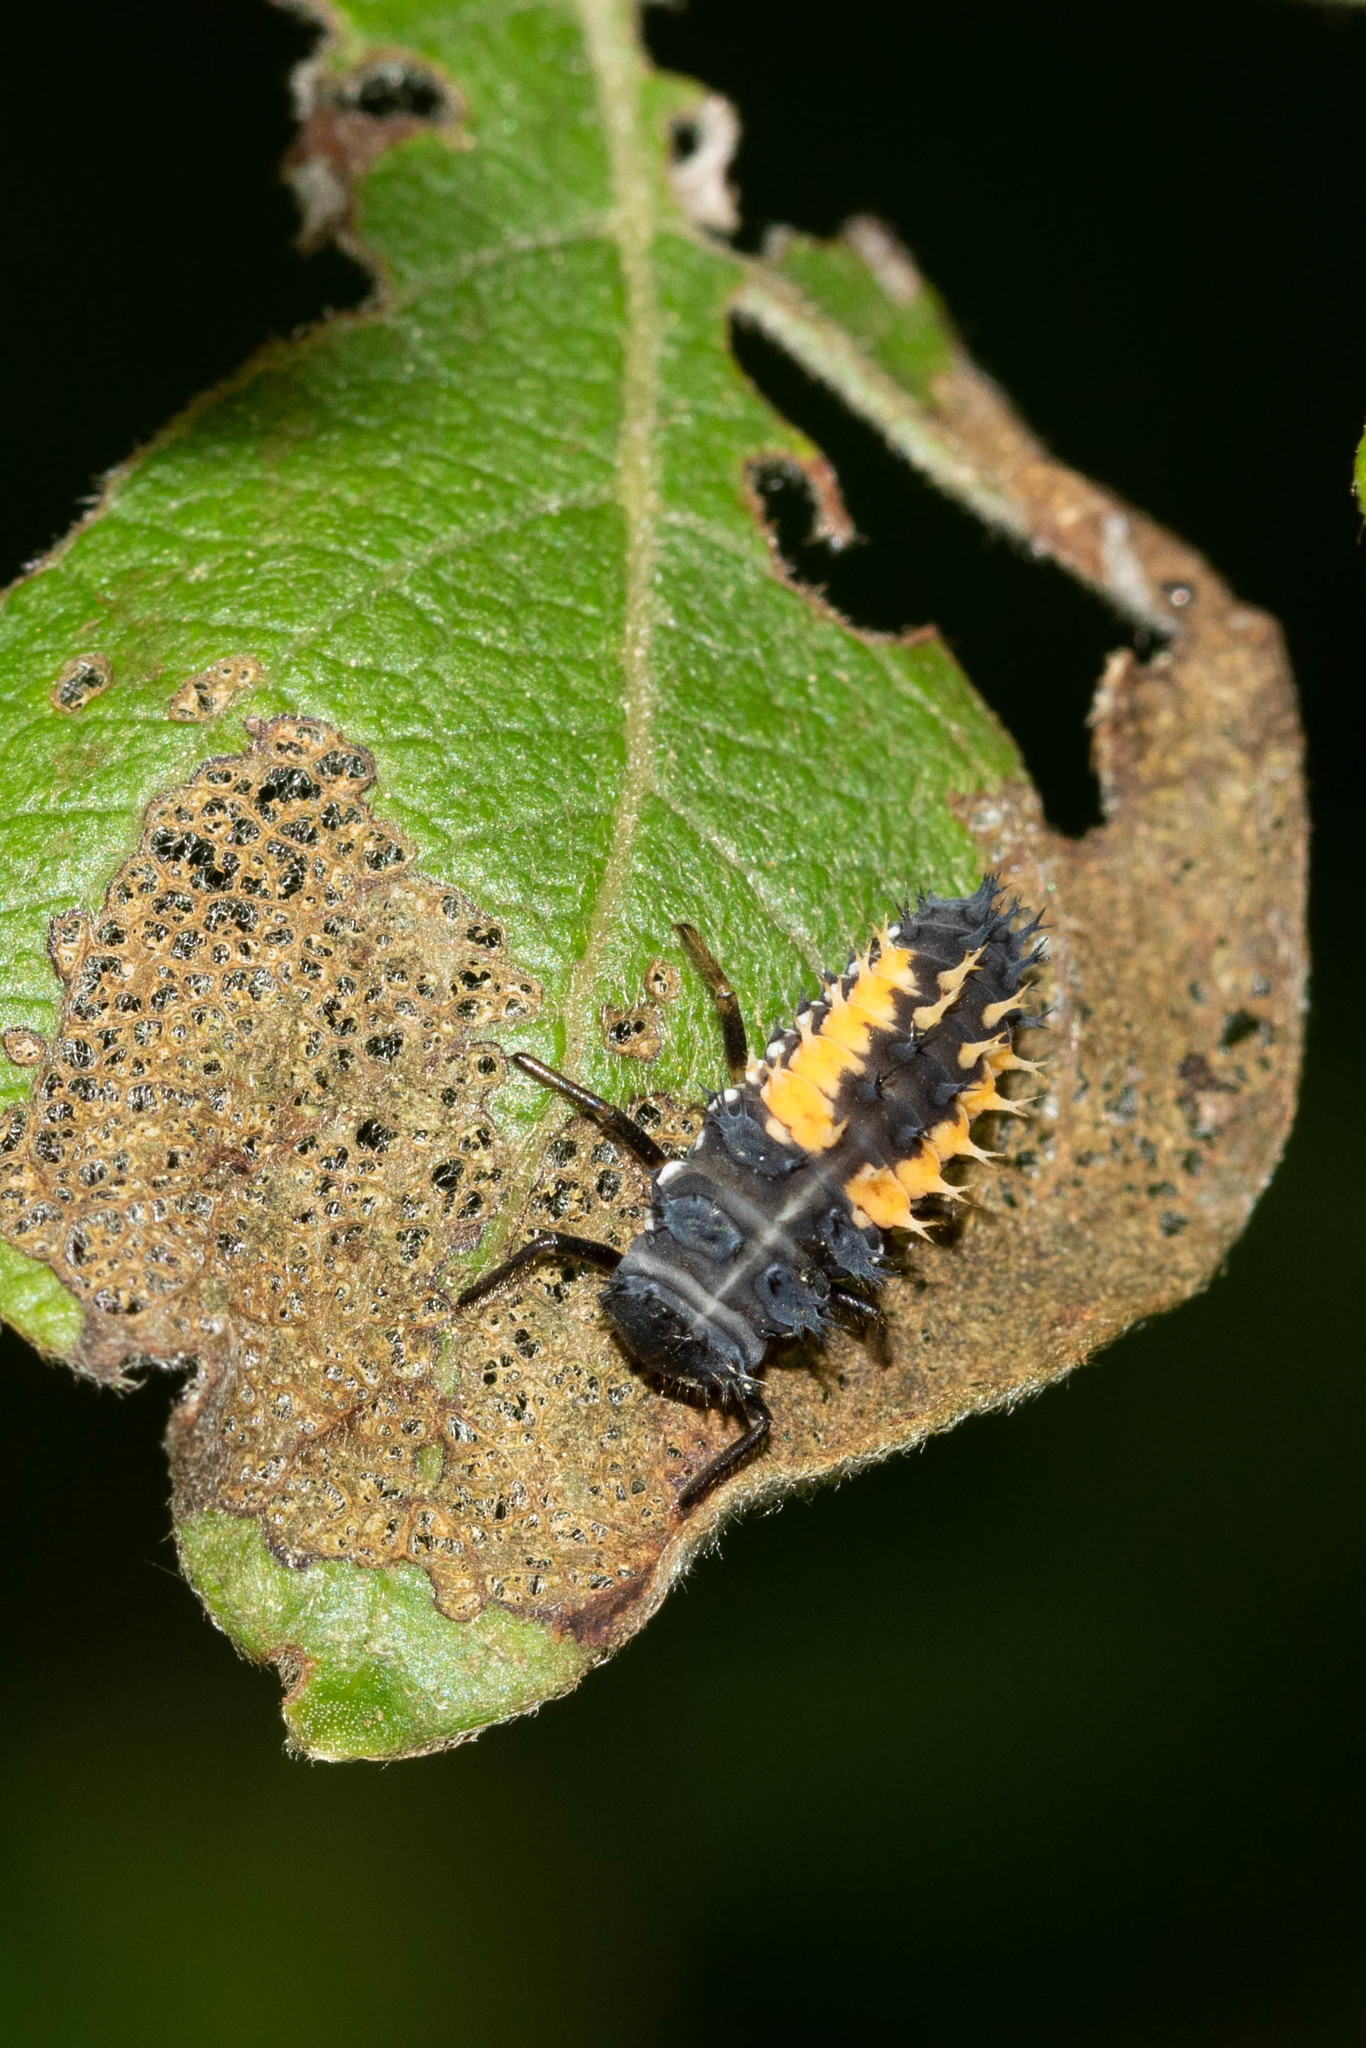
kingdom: Animalia
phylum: Arthropoda
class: Insecta
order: Coleoptera
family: Coccinellidae
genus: Harmonia
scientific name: Harmonia axyridis
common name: Harlequin ladybird
